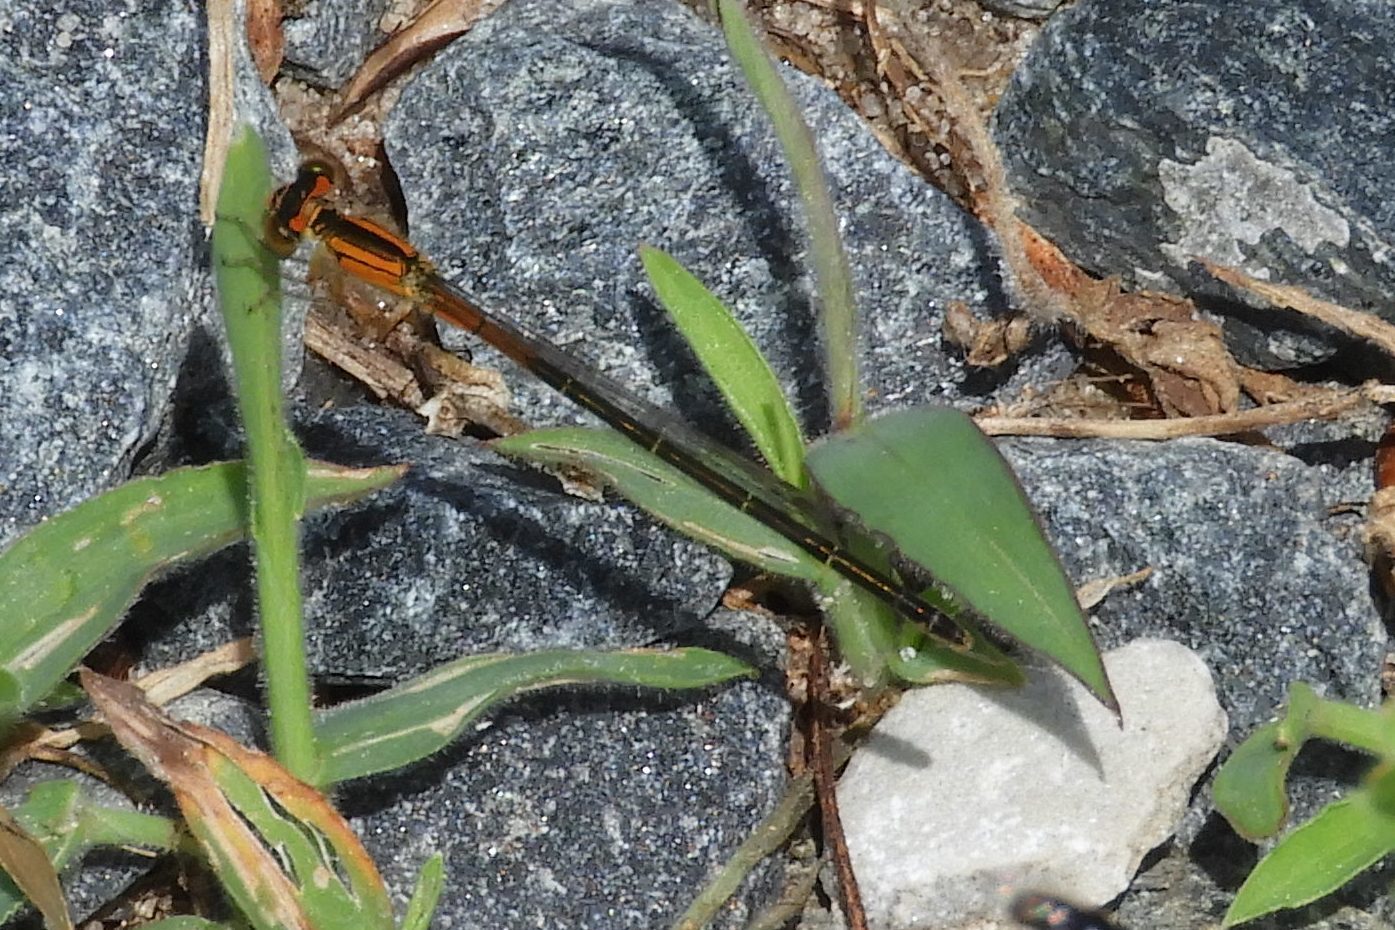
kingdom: Animalia
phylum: Arthropoda
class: Insecta
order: Odonata
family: Coenagrionidae
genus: Ischnura
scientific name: Ischnura verticalis
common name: Eastern forktail
